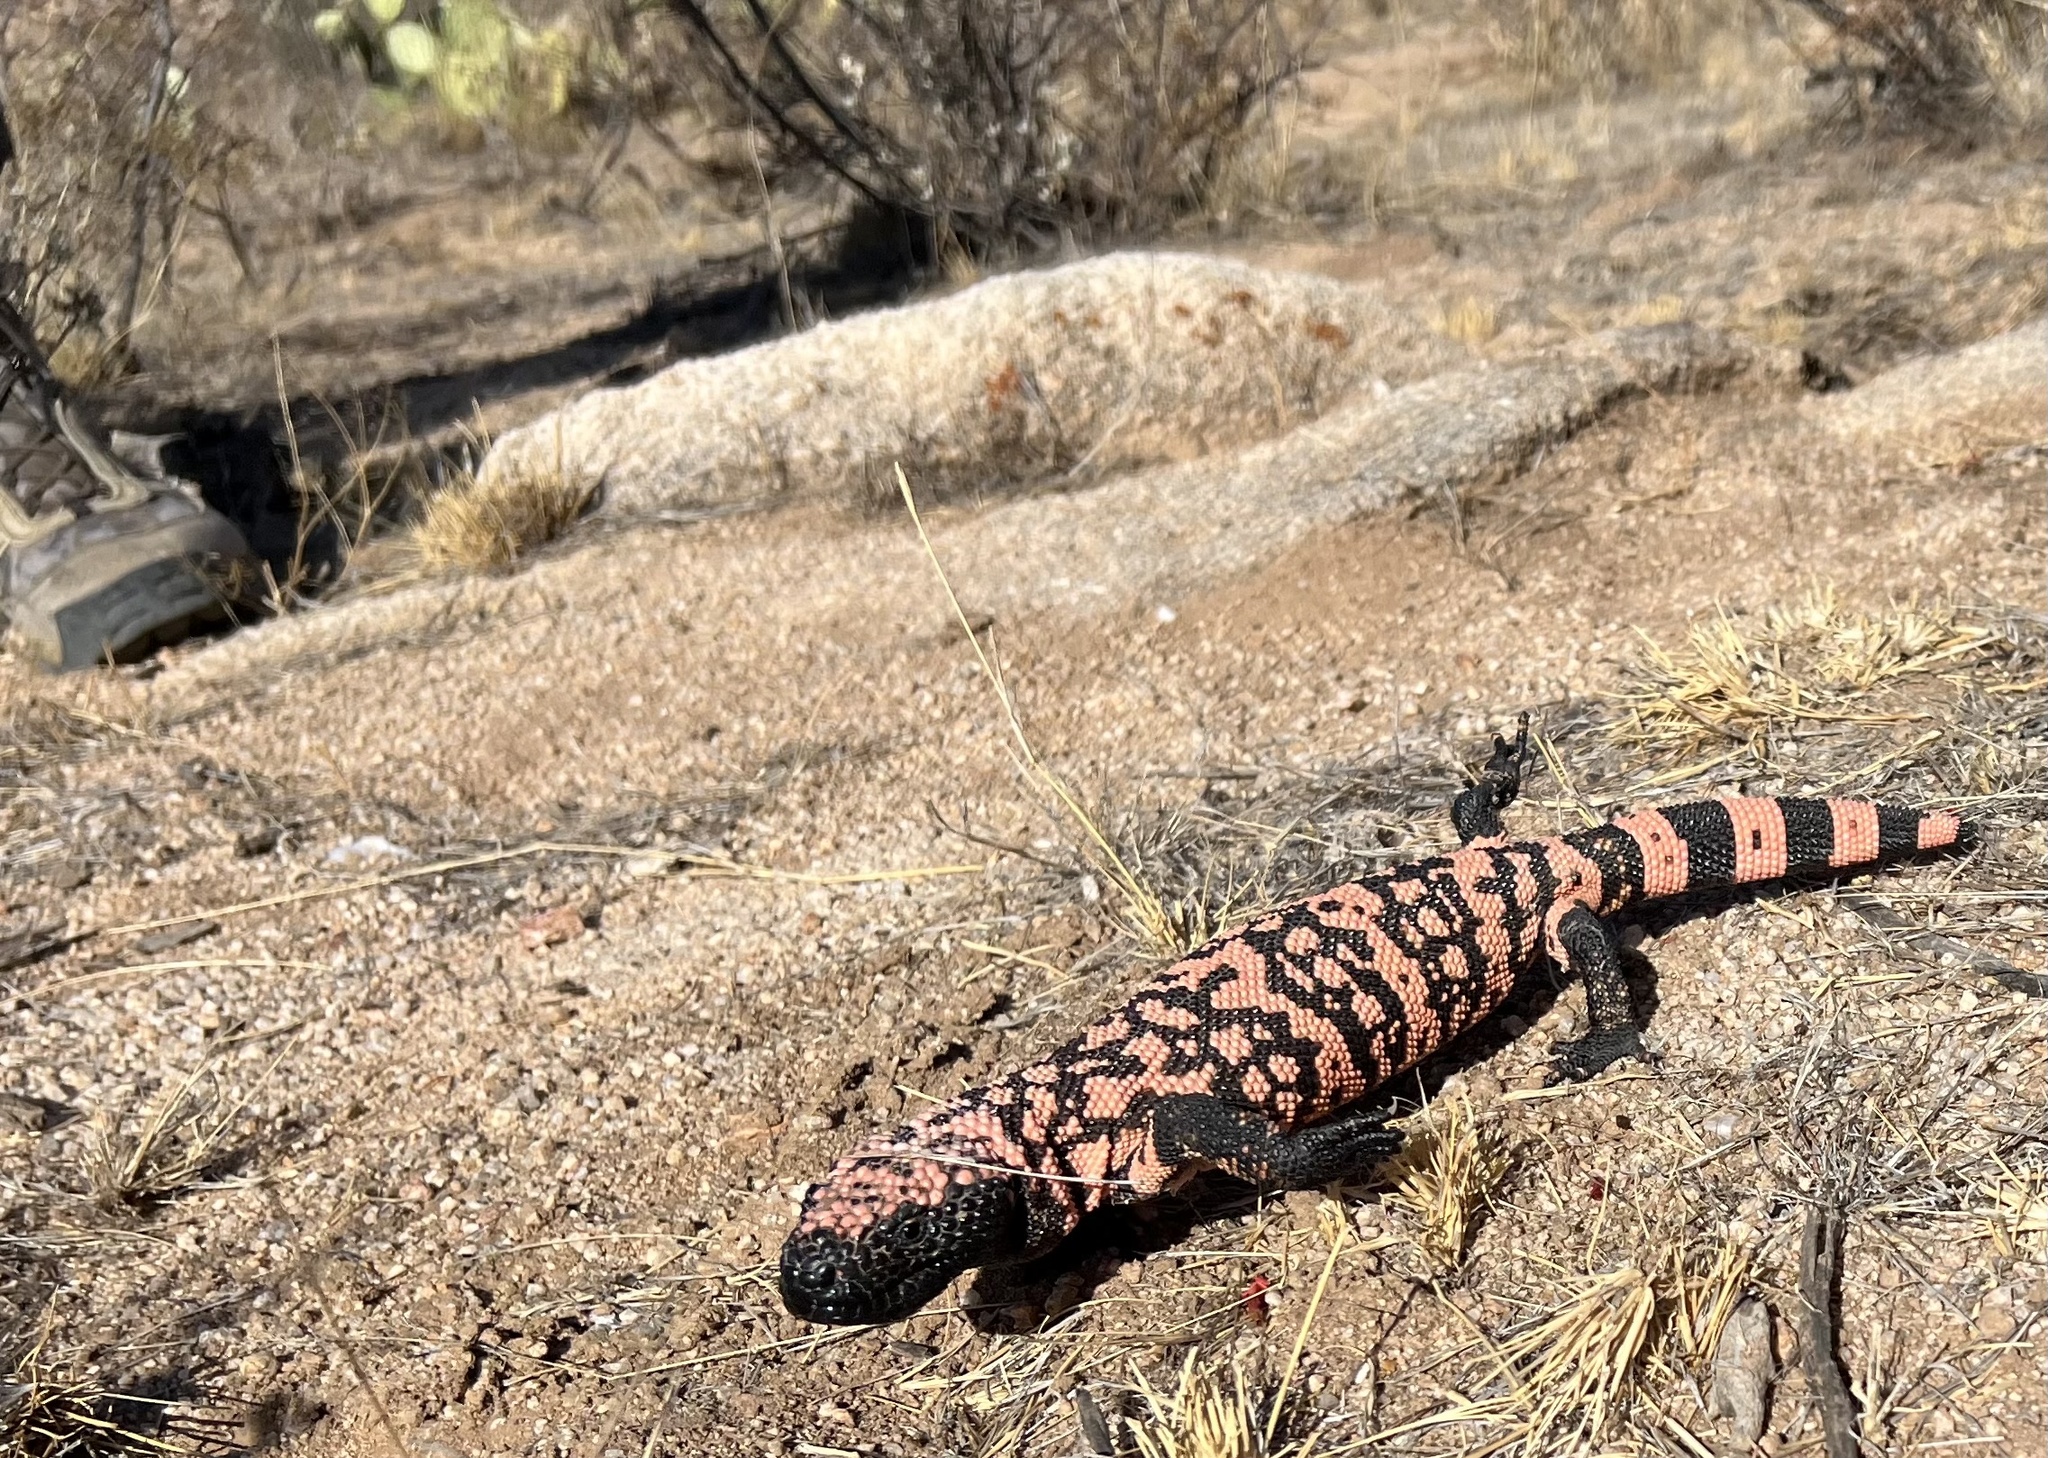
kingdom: Animalia
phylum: Chordata
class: Squamata
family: Helodermatidae
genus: Heloderma
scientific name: Heloderma suspectum
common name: Gila monster
